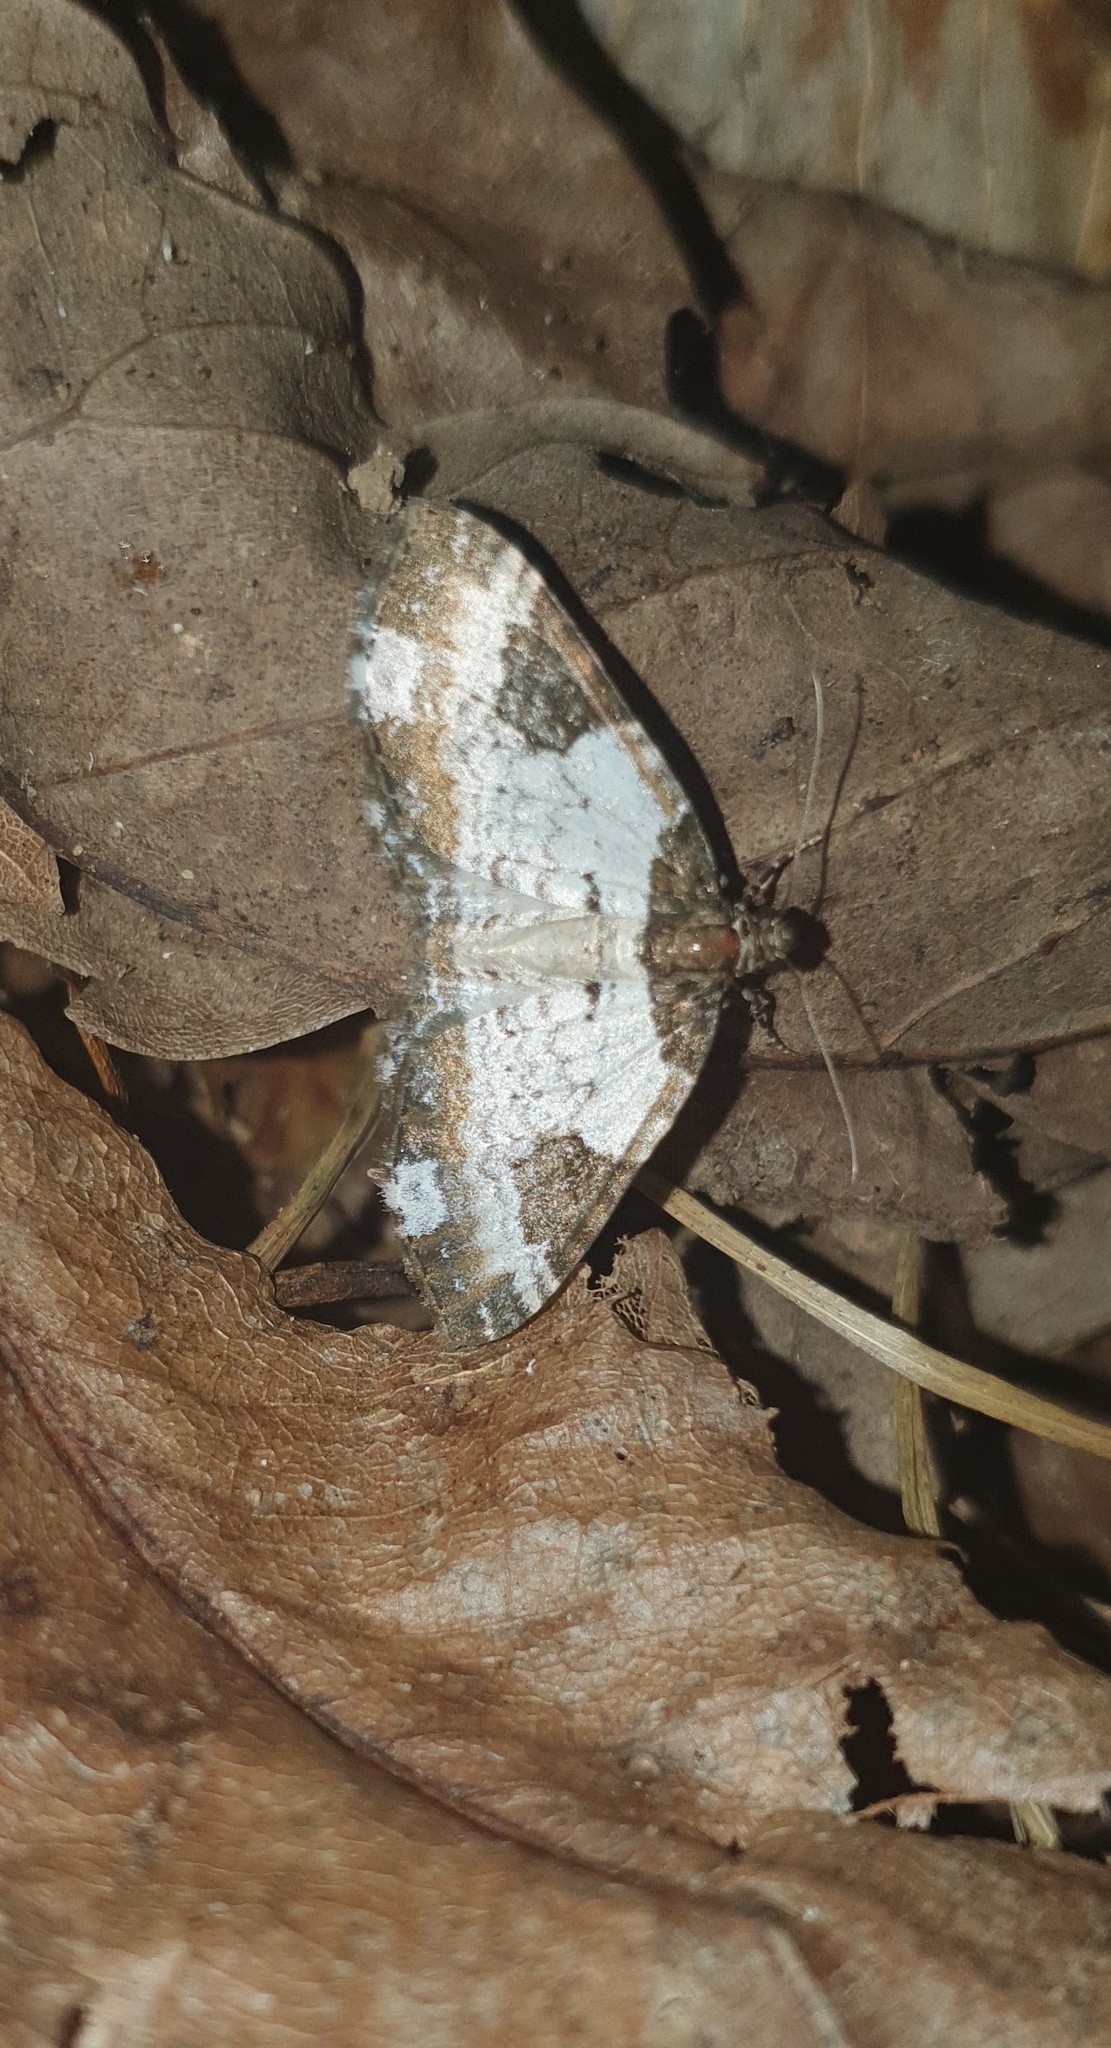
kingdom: Animalia
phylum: Arthropoda
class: Insecta
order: Lepidoptera
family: Geometridae
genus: Melanthia
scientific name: Melanthia procellata
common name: Pretty chalk carpet
